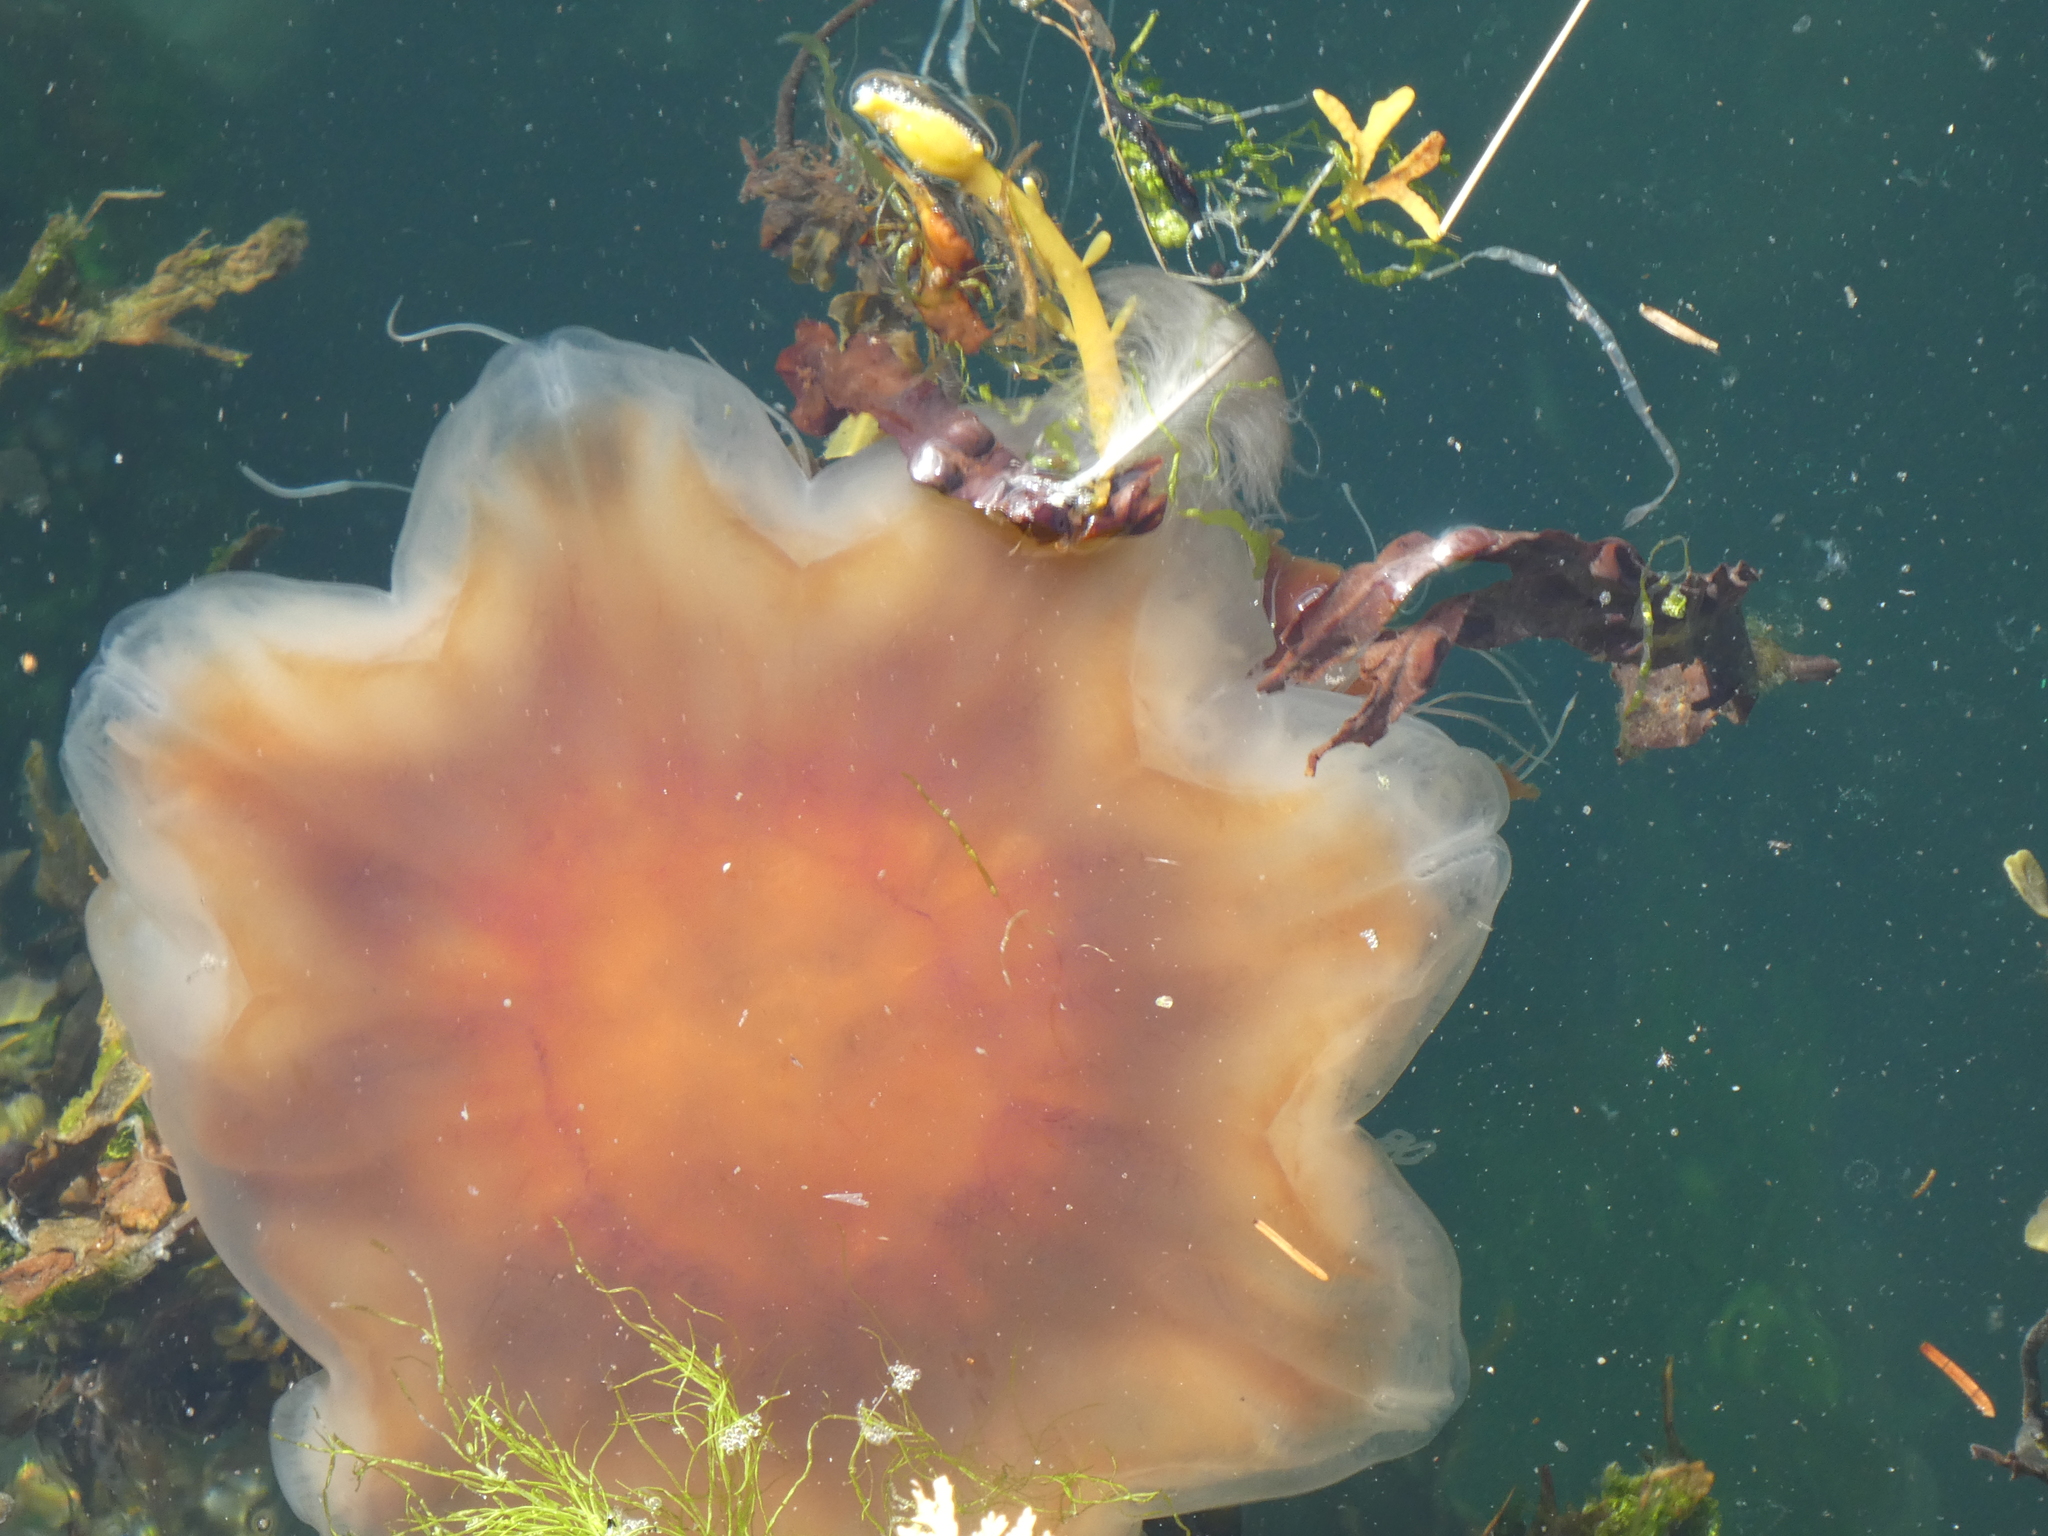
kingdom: Animalia
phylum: Cnidaria
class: Scyphozoa
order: Semaeostomeae
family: Cyaneidae
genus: Cyanea
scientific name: Cyanea capillata
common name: Lion's mane jellyfish
